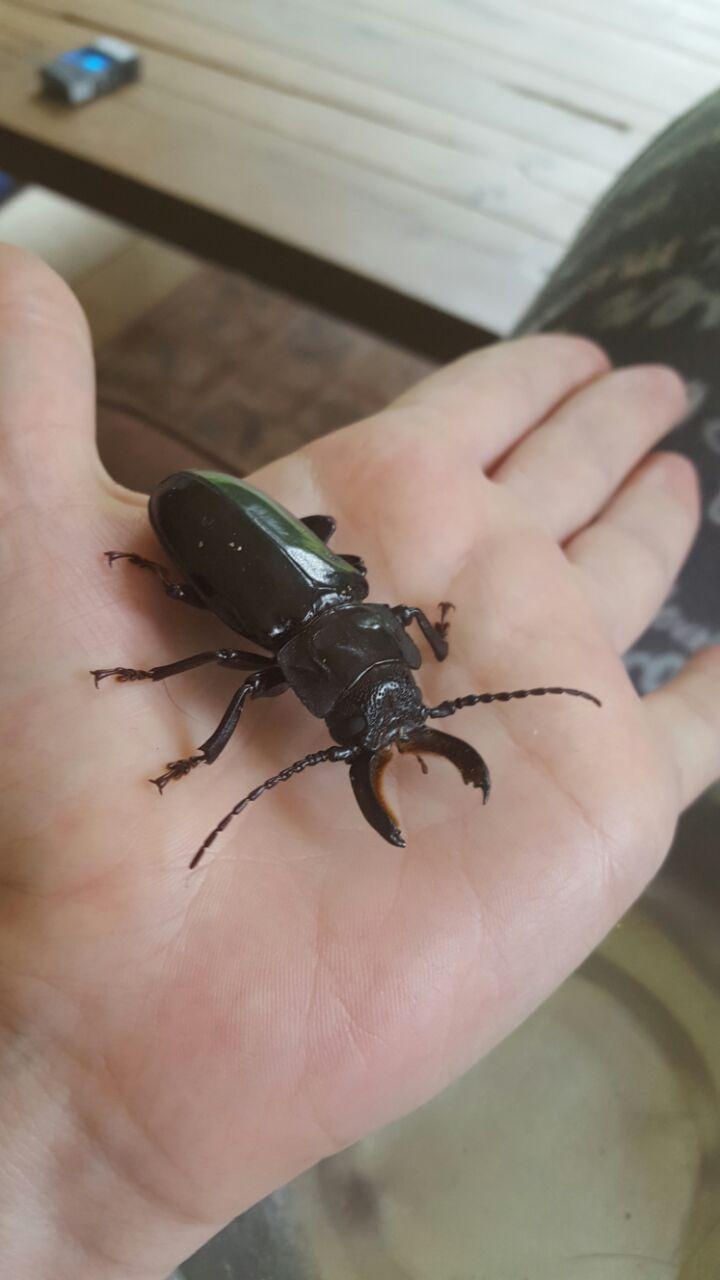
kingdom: Animalia
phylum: Arthropoda
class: Insecta
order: Coleoptera
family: Cerambycidae
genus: Mallodon
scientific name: Mallodon downesii
